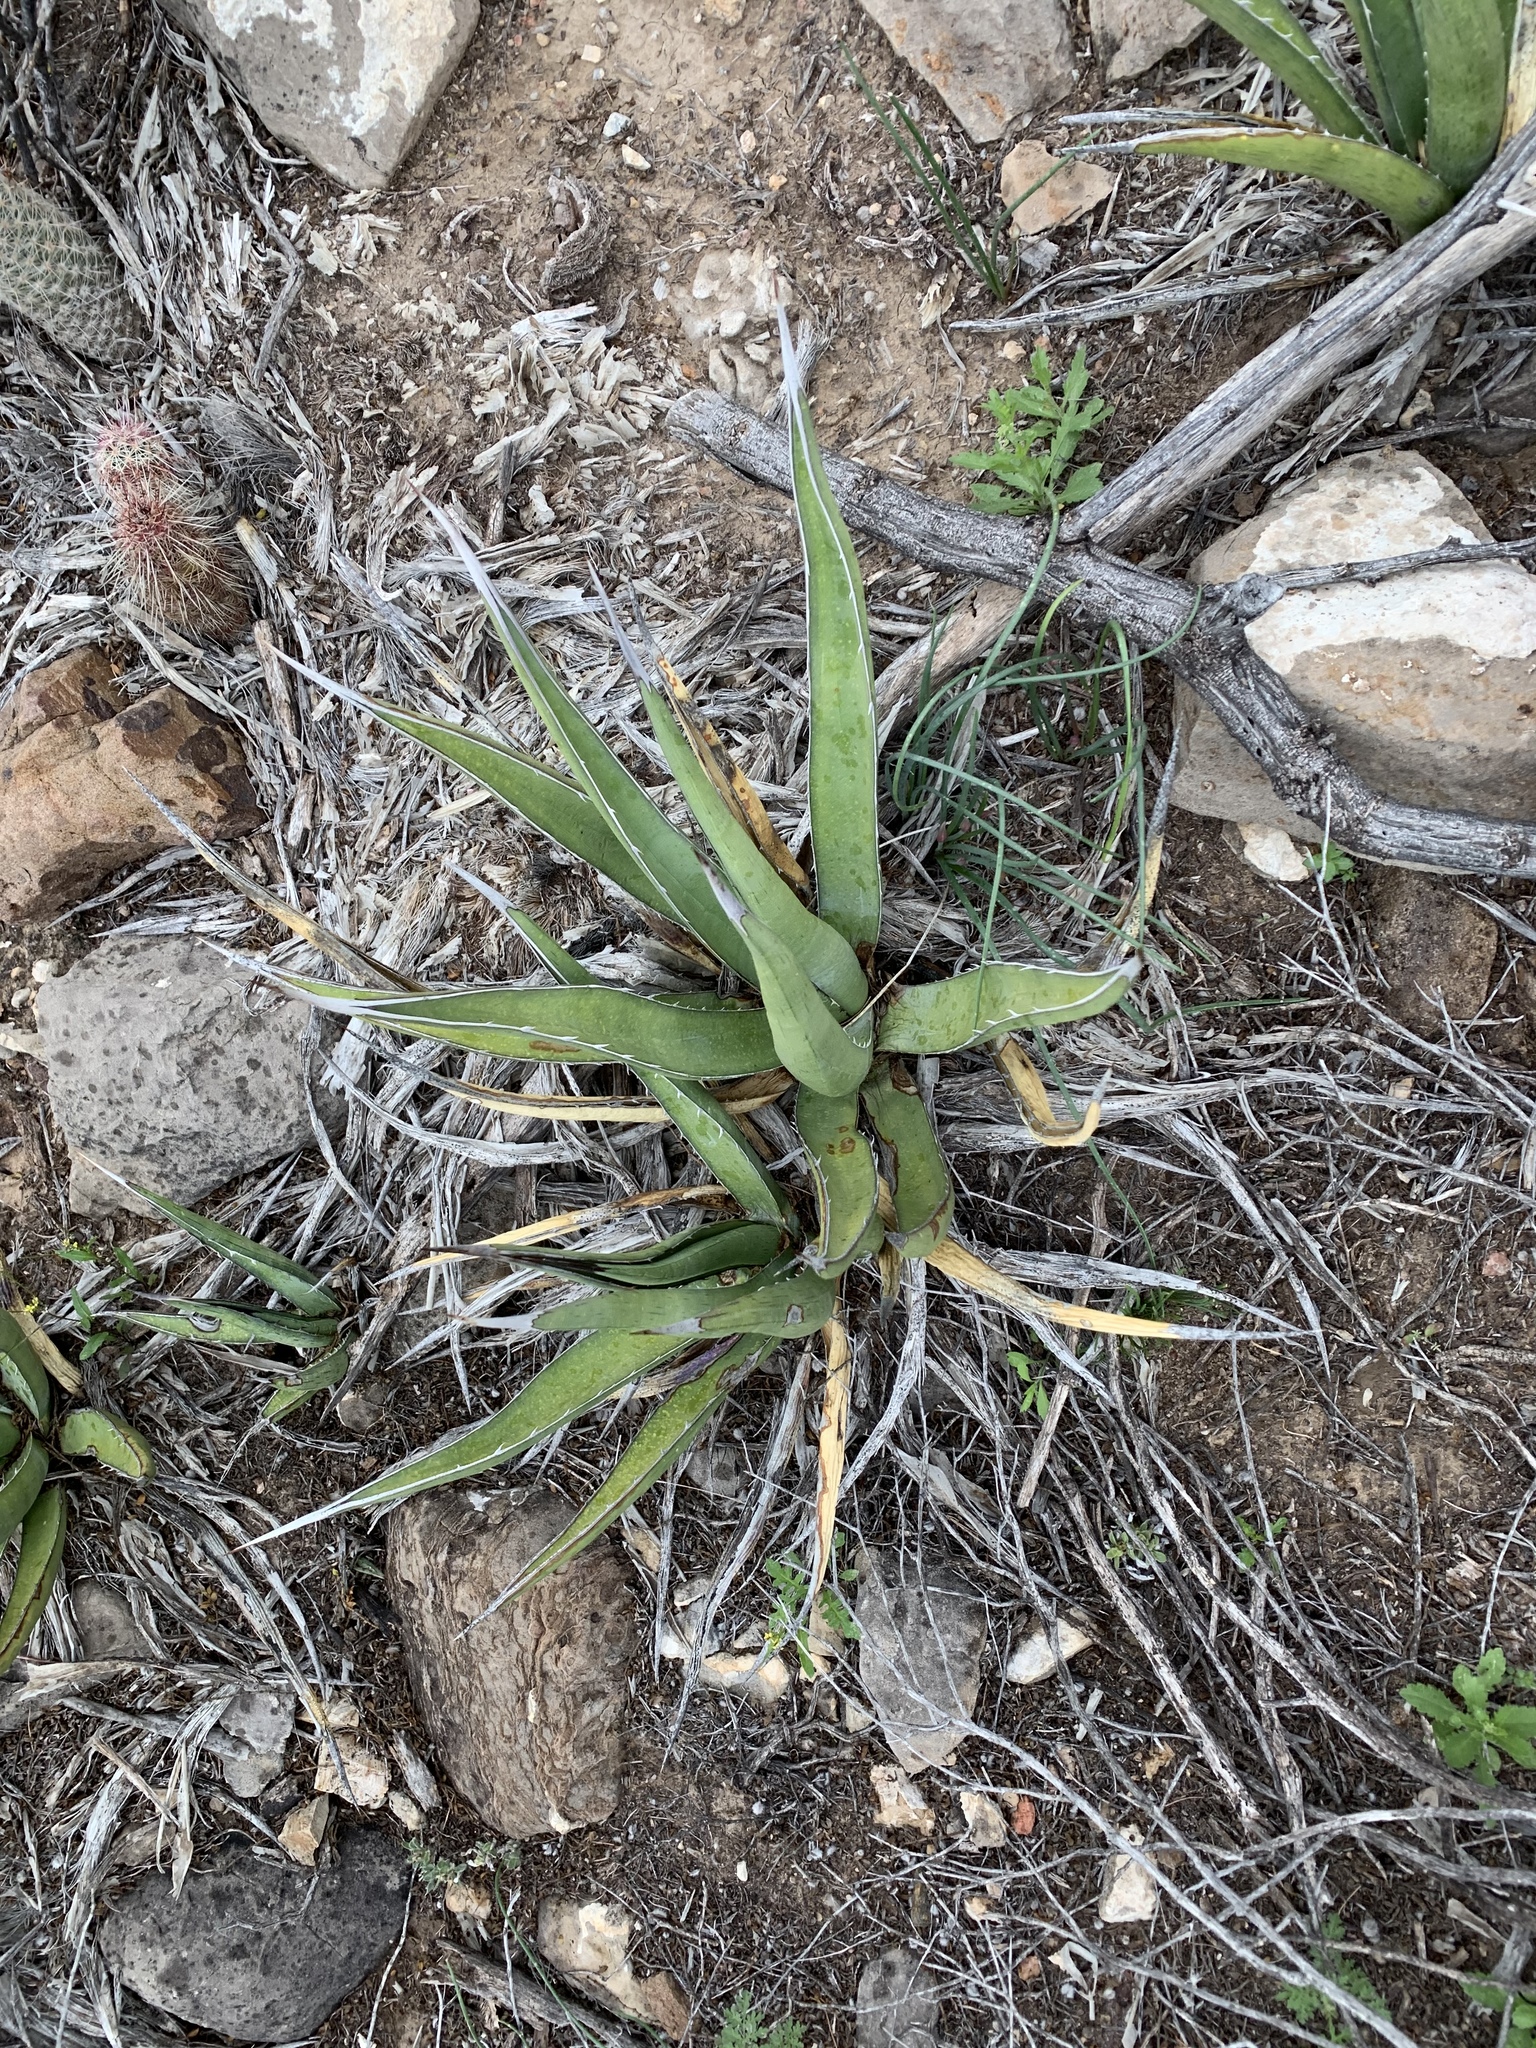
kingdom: Plantae
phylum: Tracheophyta
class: Liliopsida
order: Asparagales
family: Asparagaceae
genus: Agave
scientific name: Agave lechuguilla
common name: Lecheguilla agave
